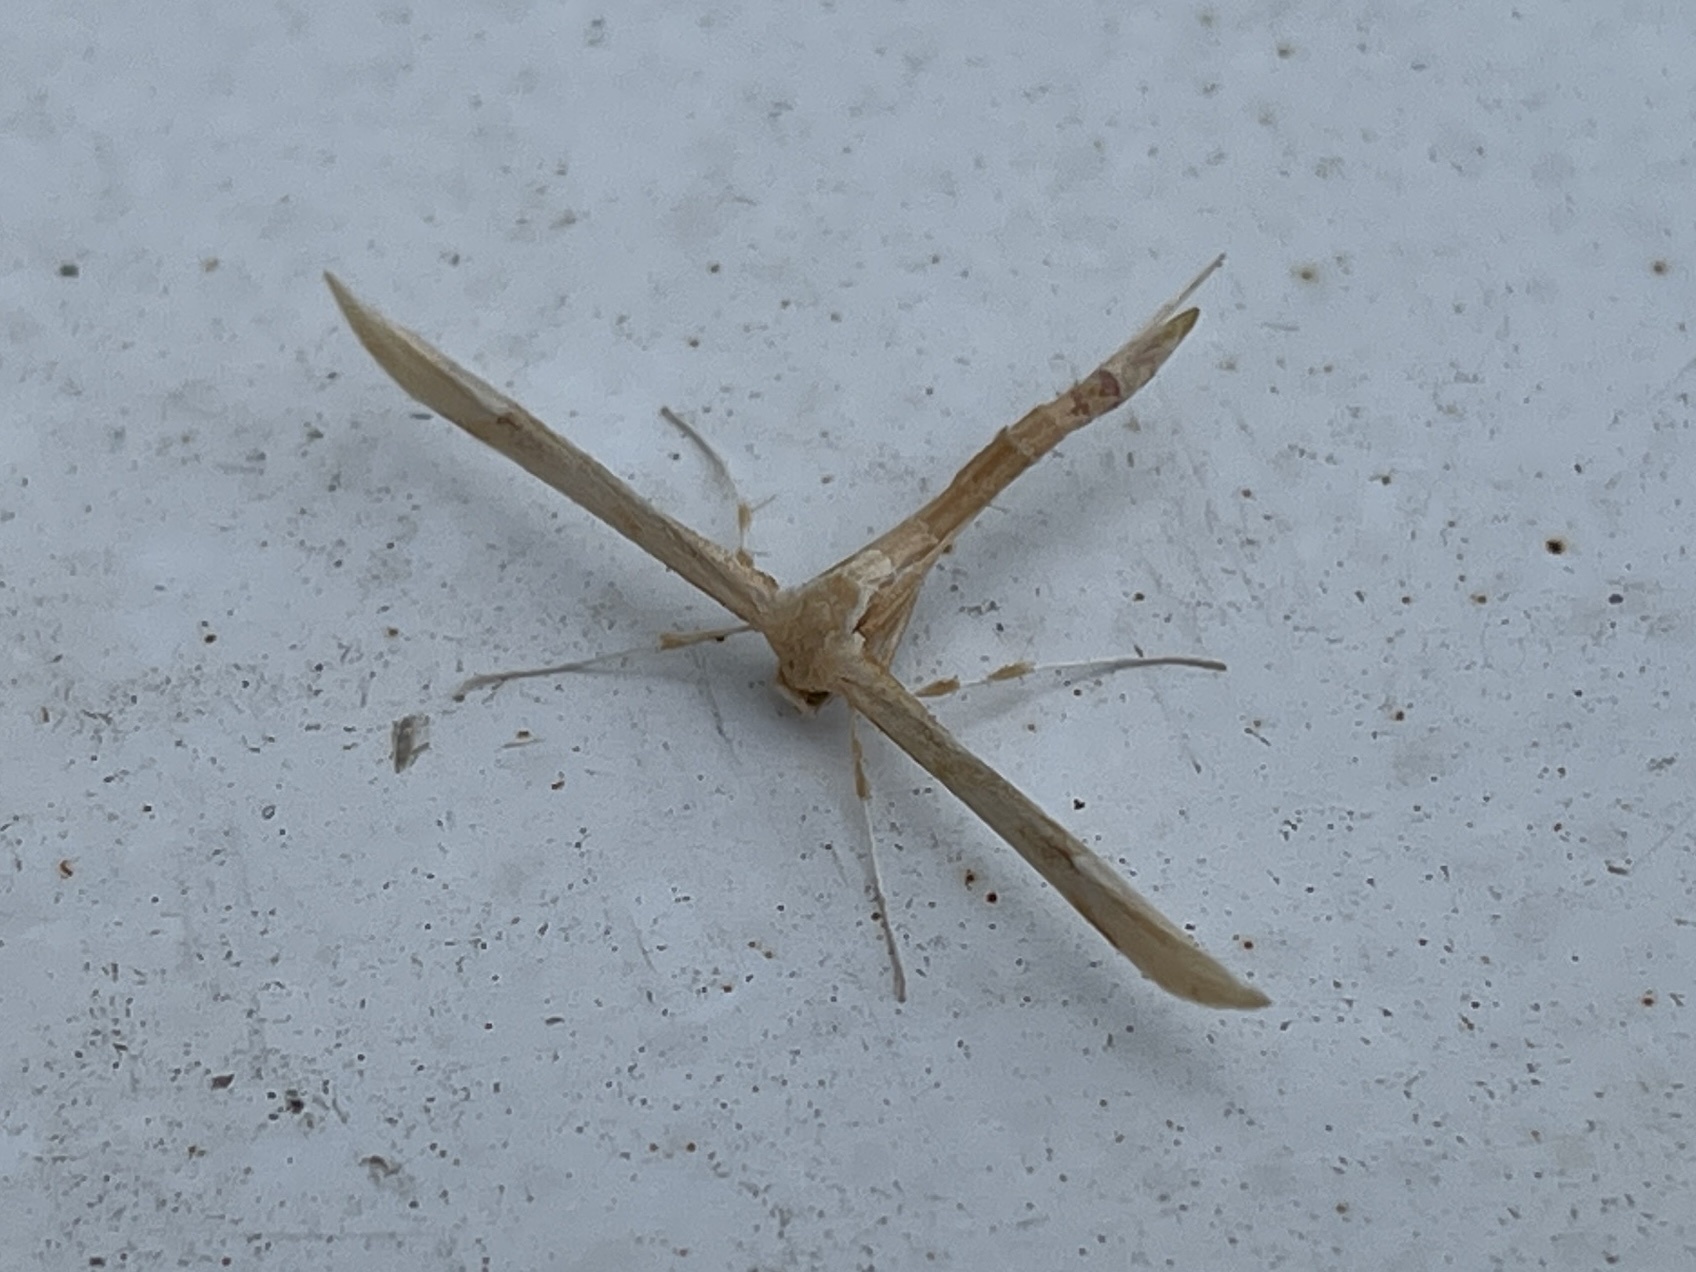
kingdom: Animalia
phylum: Arthropoda
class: Insecta
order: Lepidoptera
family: Pterophoridae
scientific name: Pterophoridae
